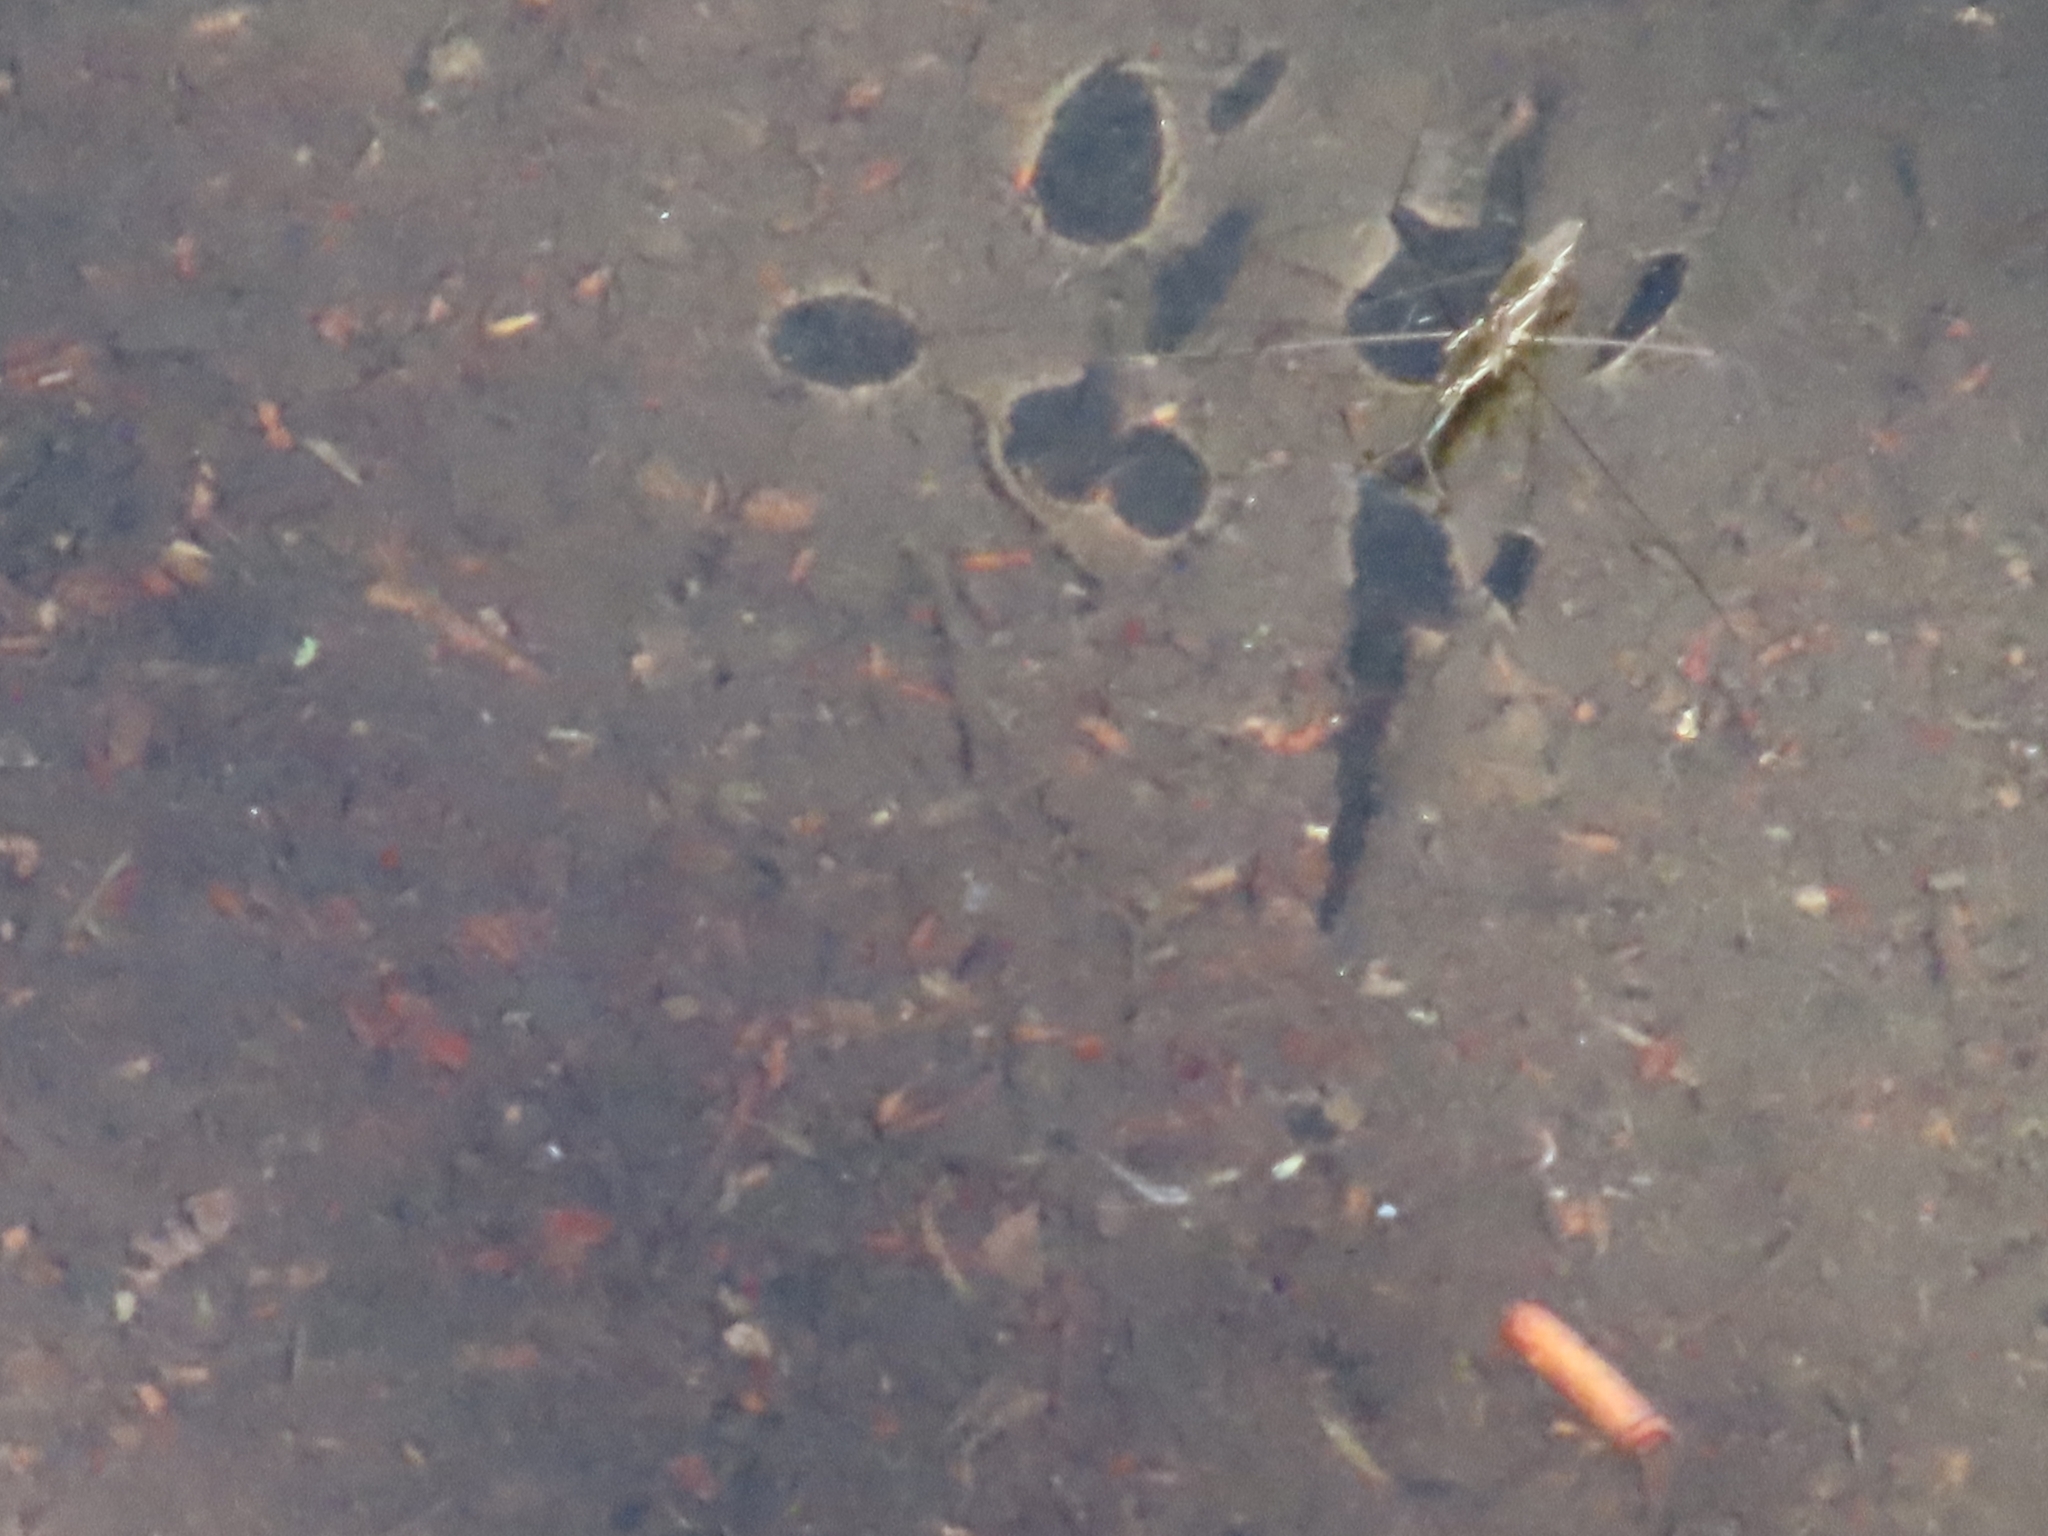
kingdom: Animalia
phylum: Arthropoda
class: Insecta
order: Hemiptera
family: Gerridae
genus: Aquarius
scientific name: Aquarius paludum
